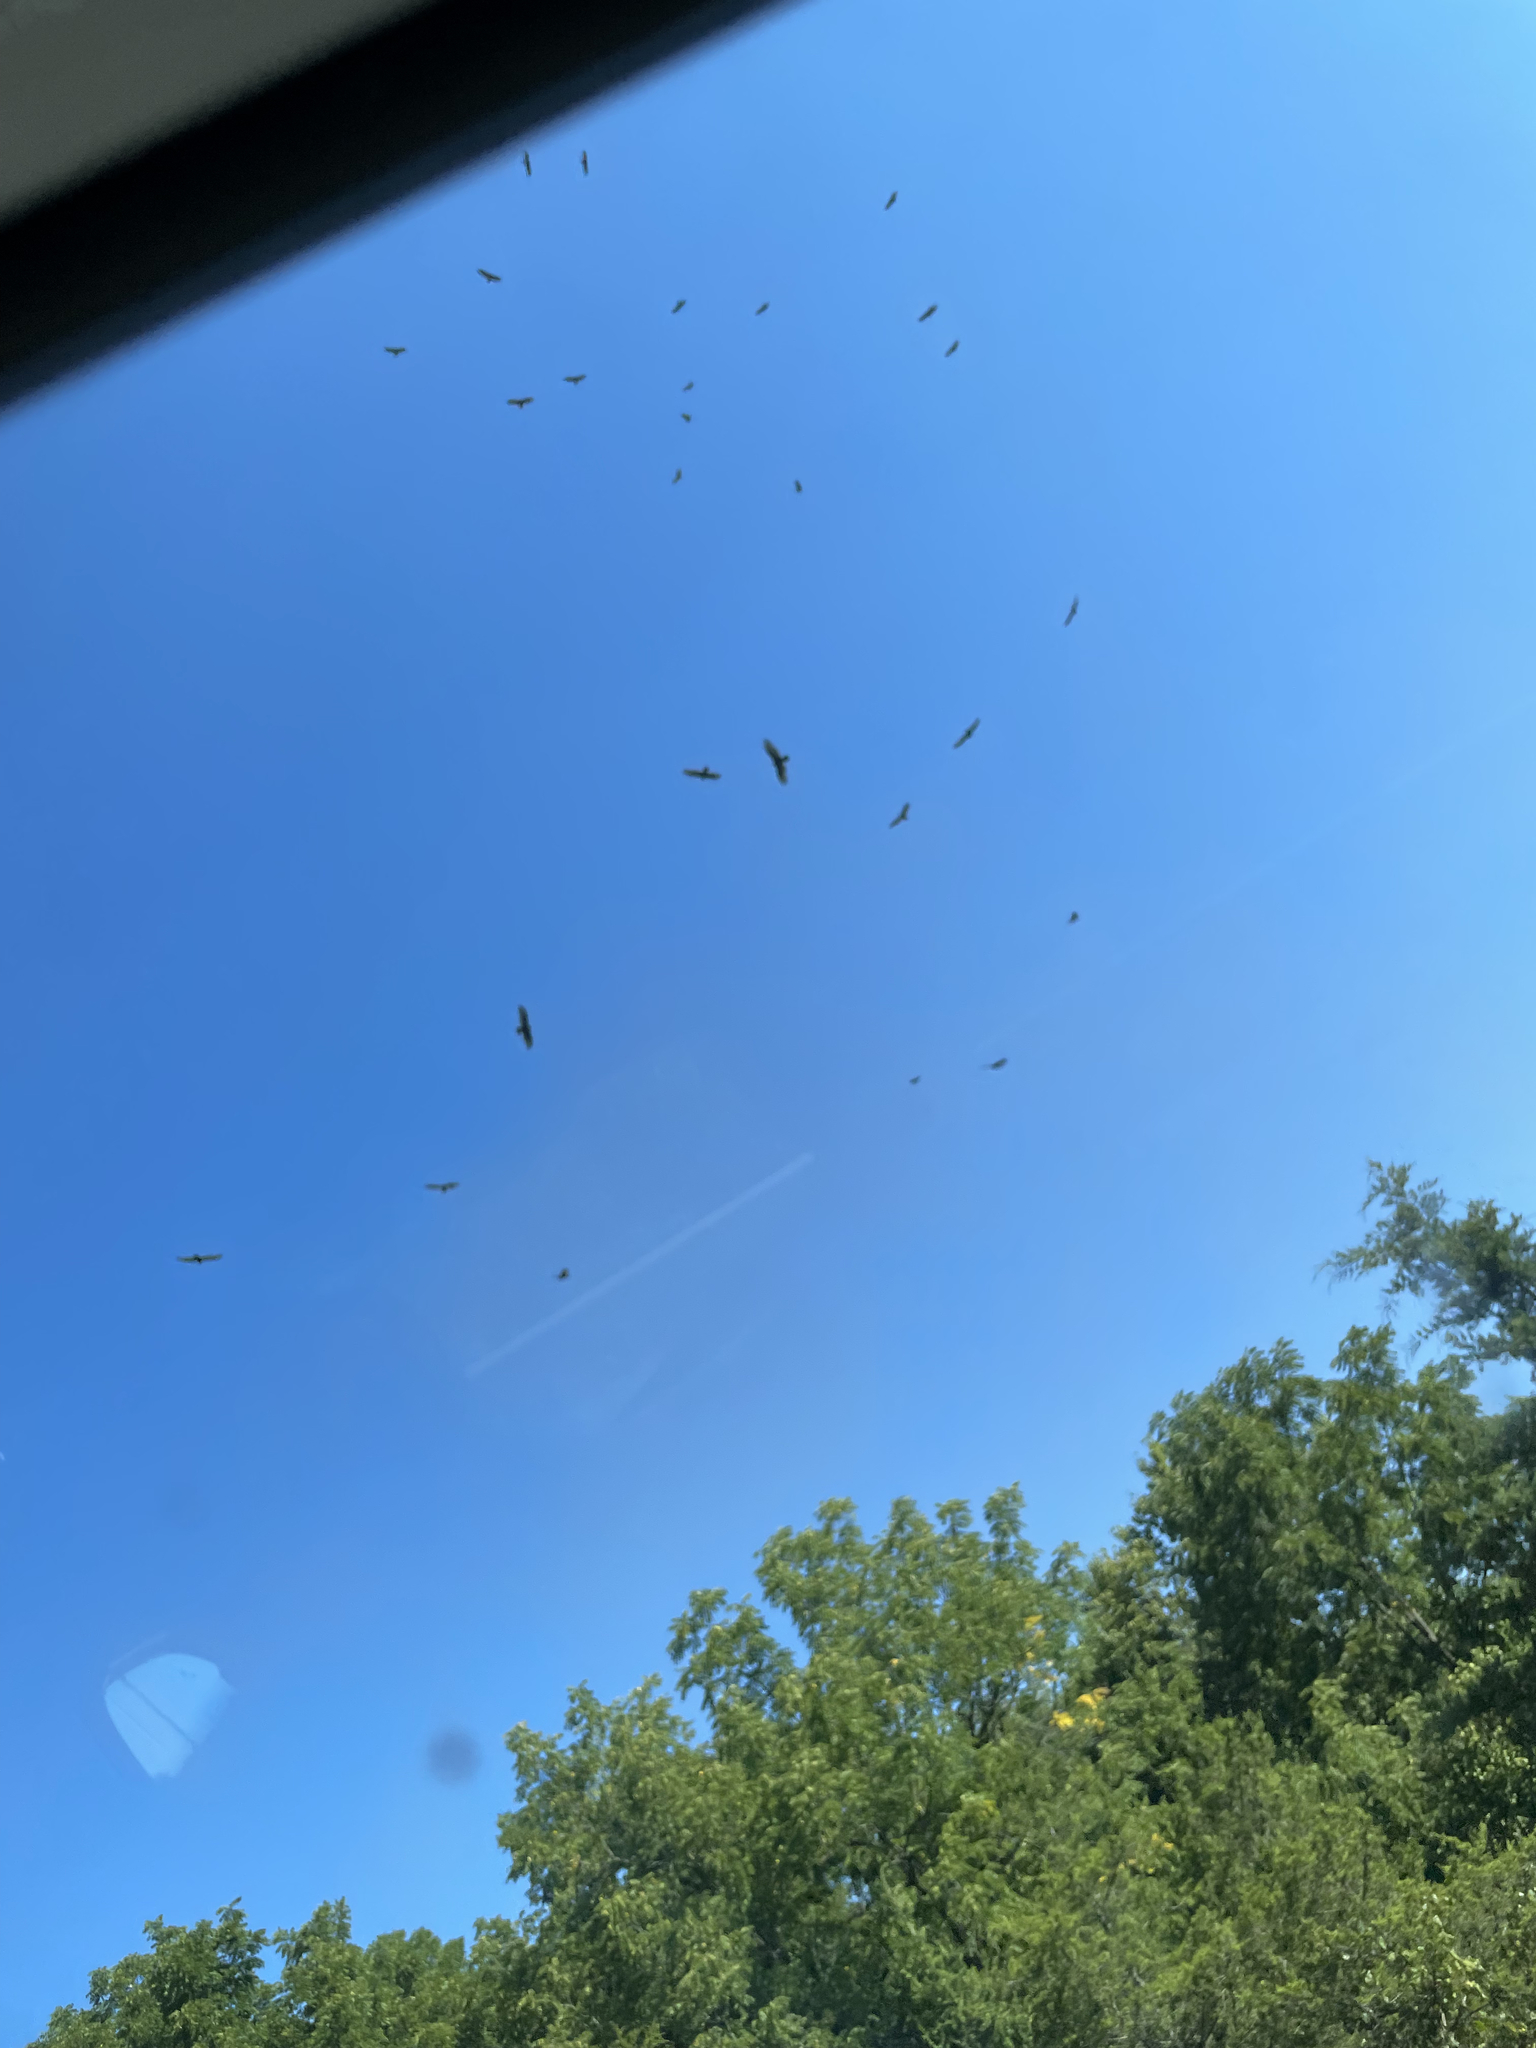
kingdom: Animalia
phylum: Chordata
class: Aves
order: Accipitriformes
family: Cathartidae
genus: Cathartes
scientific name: Cathartes aura
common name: Turkey vulture
